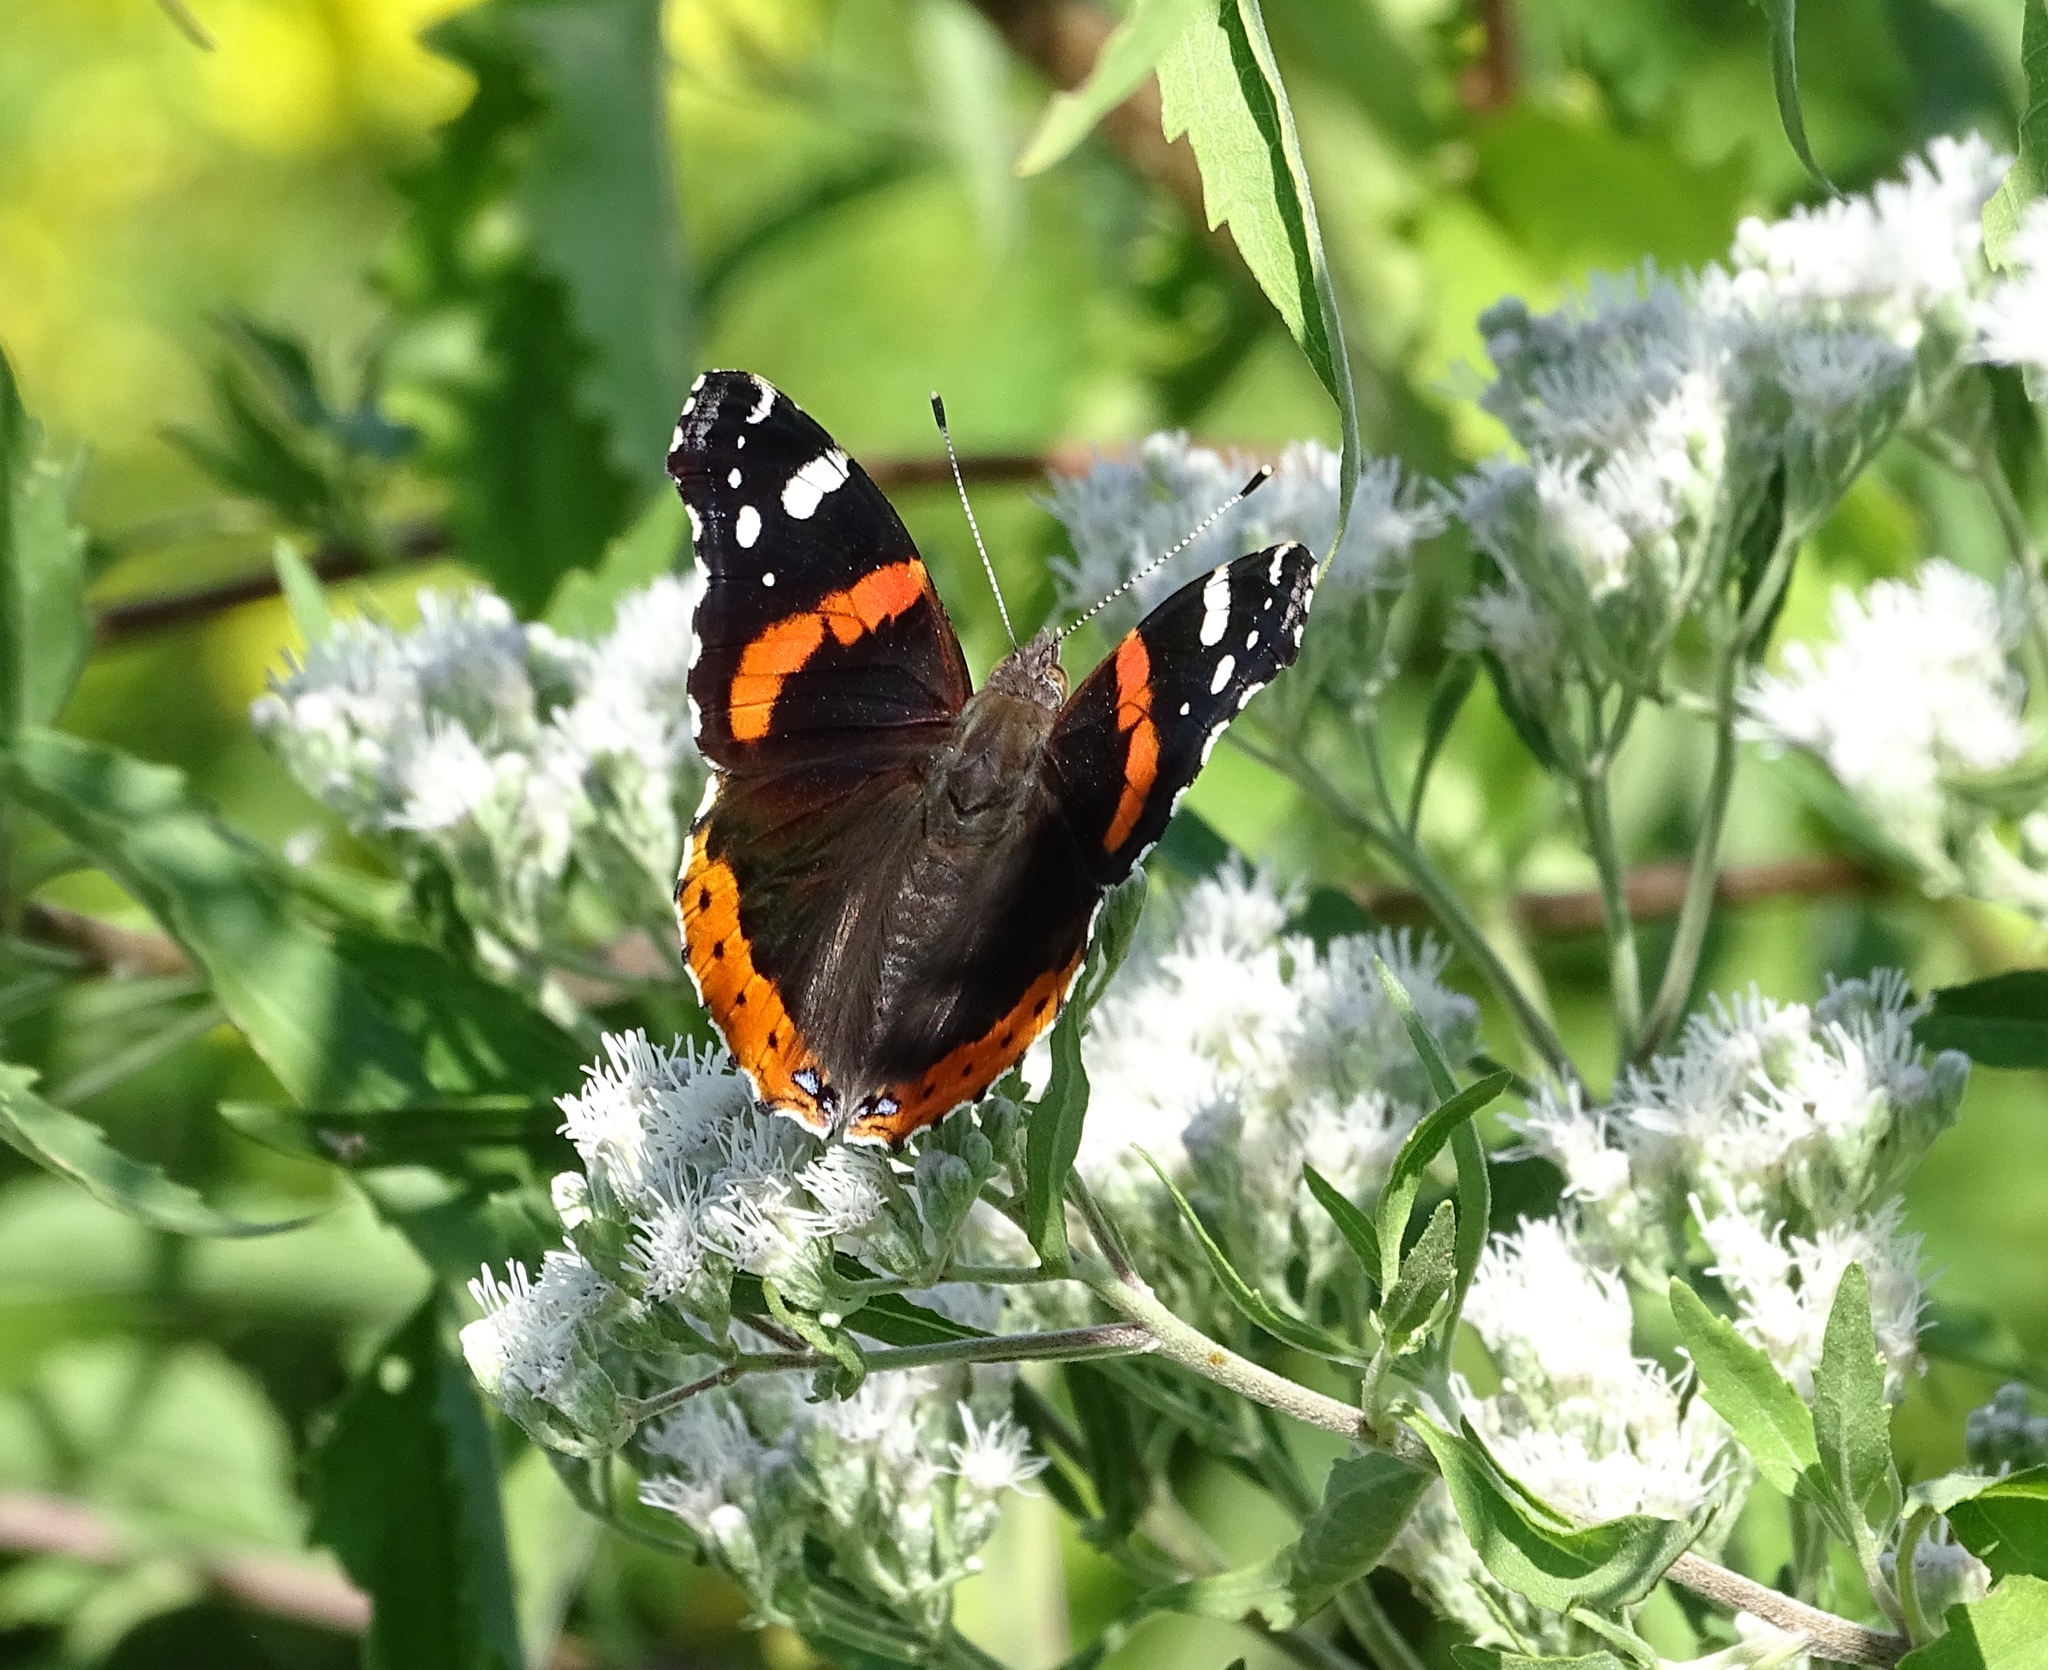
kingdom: Animalia
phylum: Arthropoda
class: Insecta
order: Lepidoptera
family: Nymphalidae
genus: Vanessa
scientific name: Vanessa atalanta
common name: Red admiral
